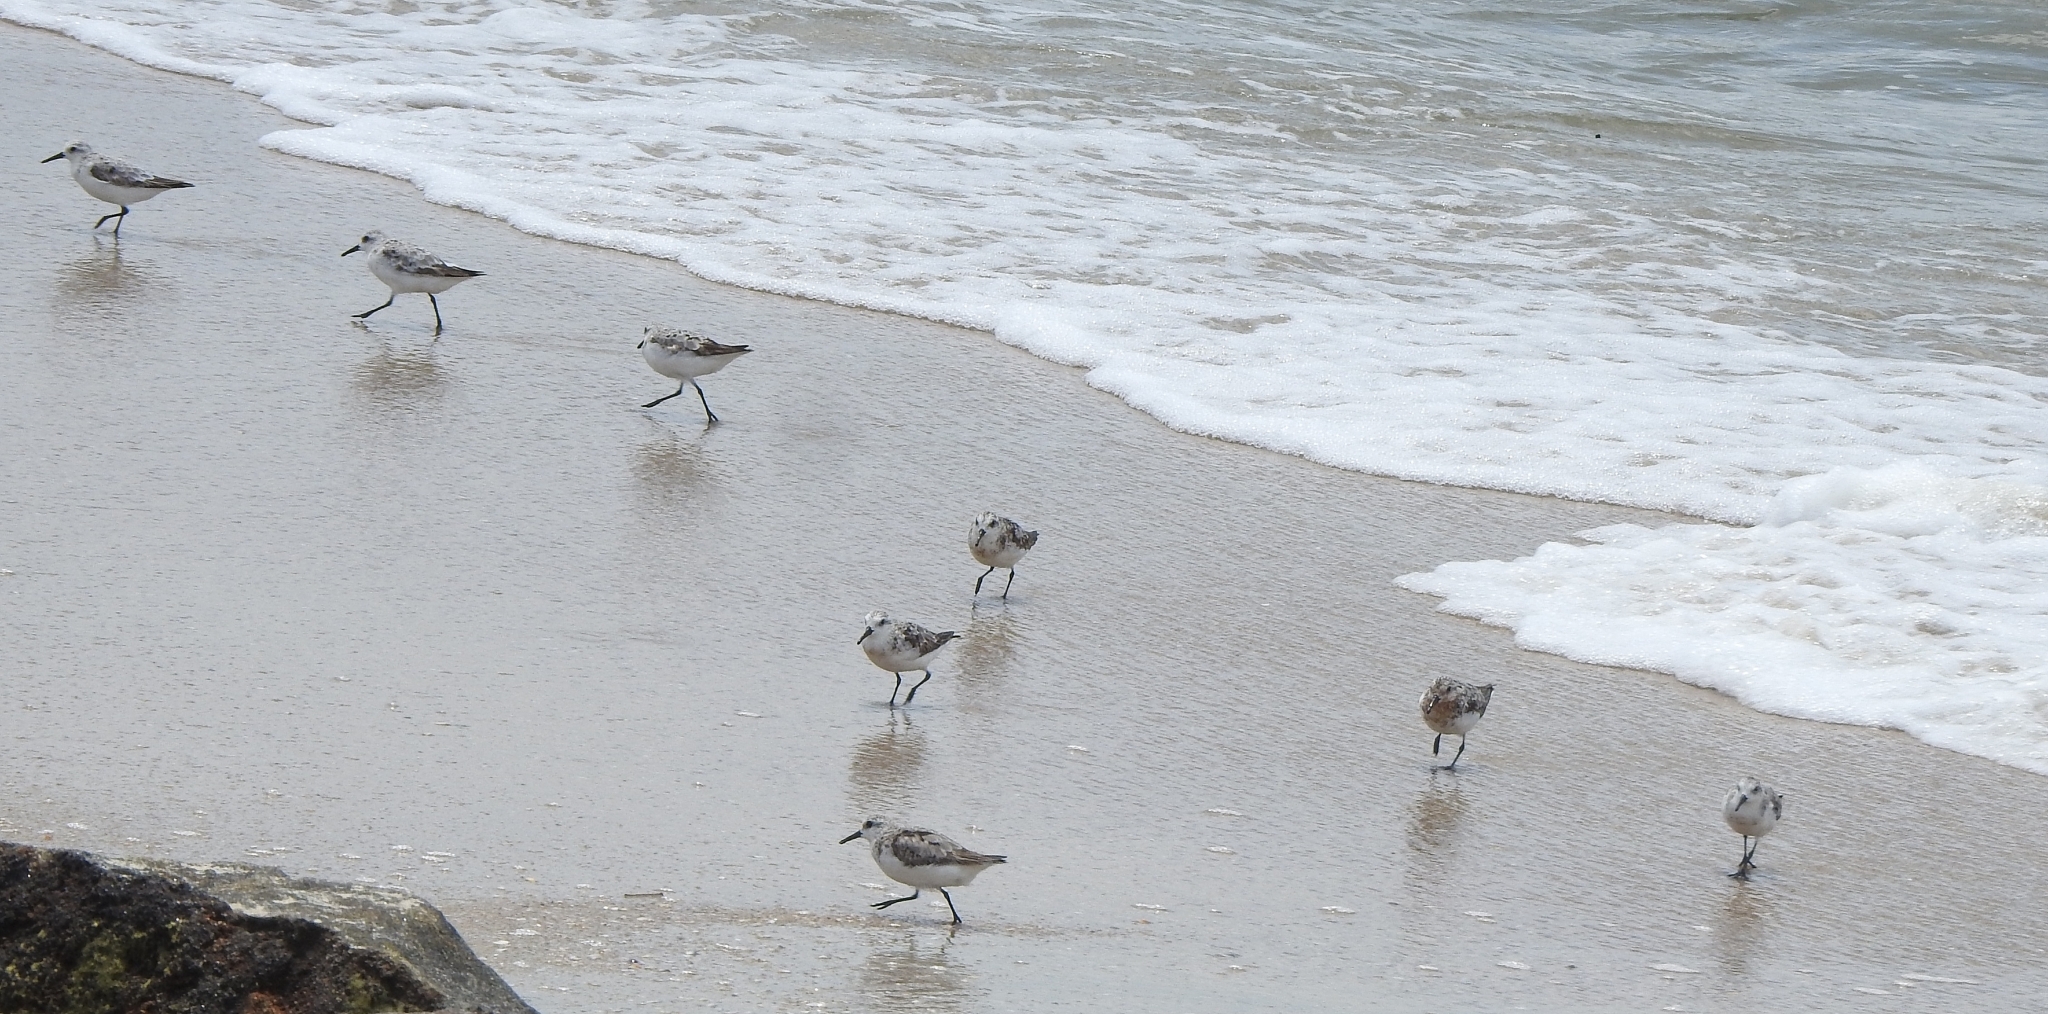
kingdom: Animalia
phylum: Chordata
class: Aves
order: Charadriiformes
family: Scolopacidae
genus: Calidris
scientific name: Calidris alba
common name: Sanderling
